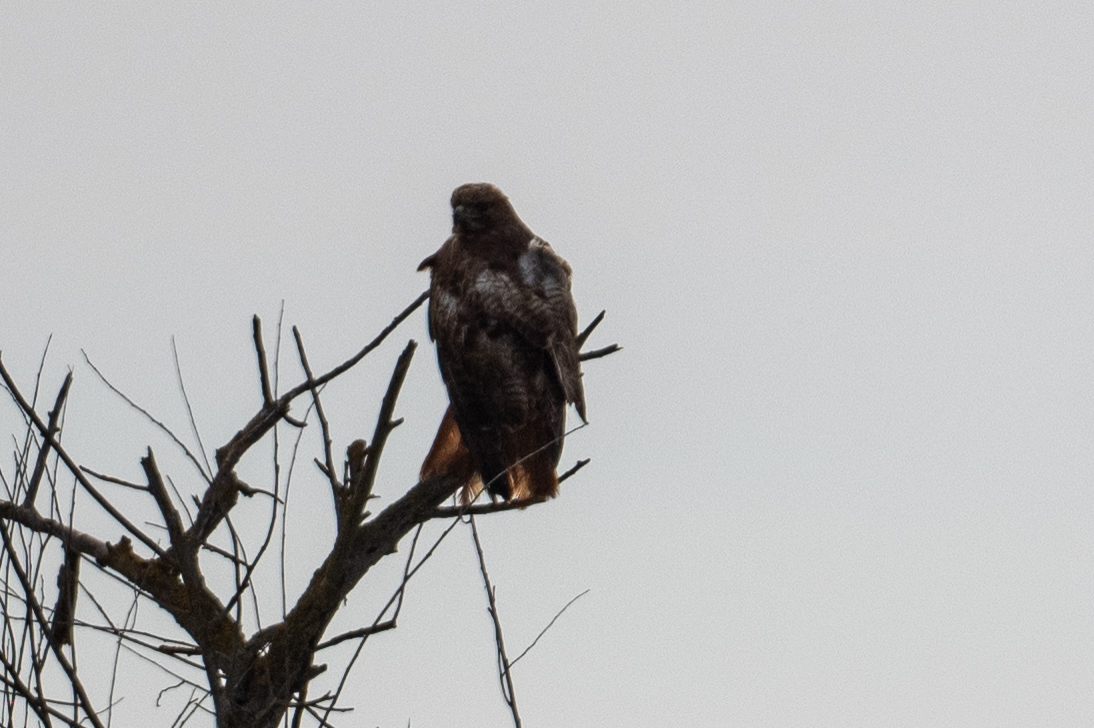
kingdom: Animalia
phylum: Chordata
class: Aves
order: Accipitriformes
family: Accipitridae
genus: Buteo
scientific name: Buteo jamaicensis
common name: Red-tailed hawk
